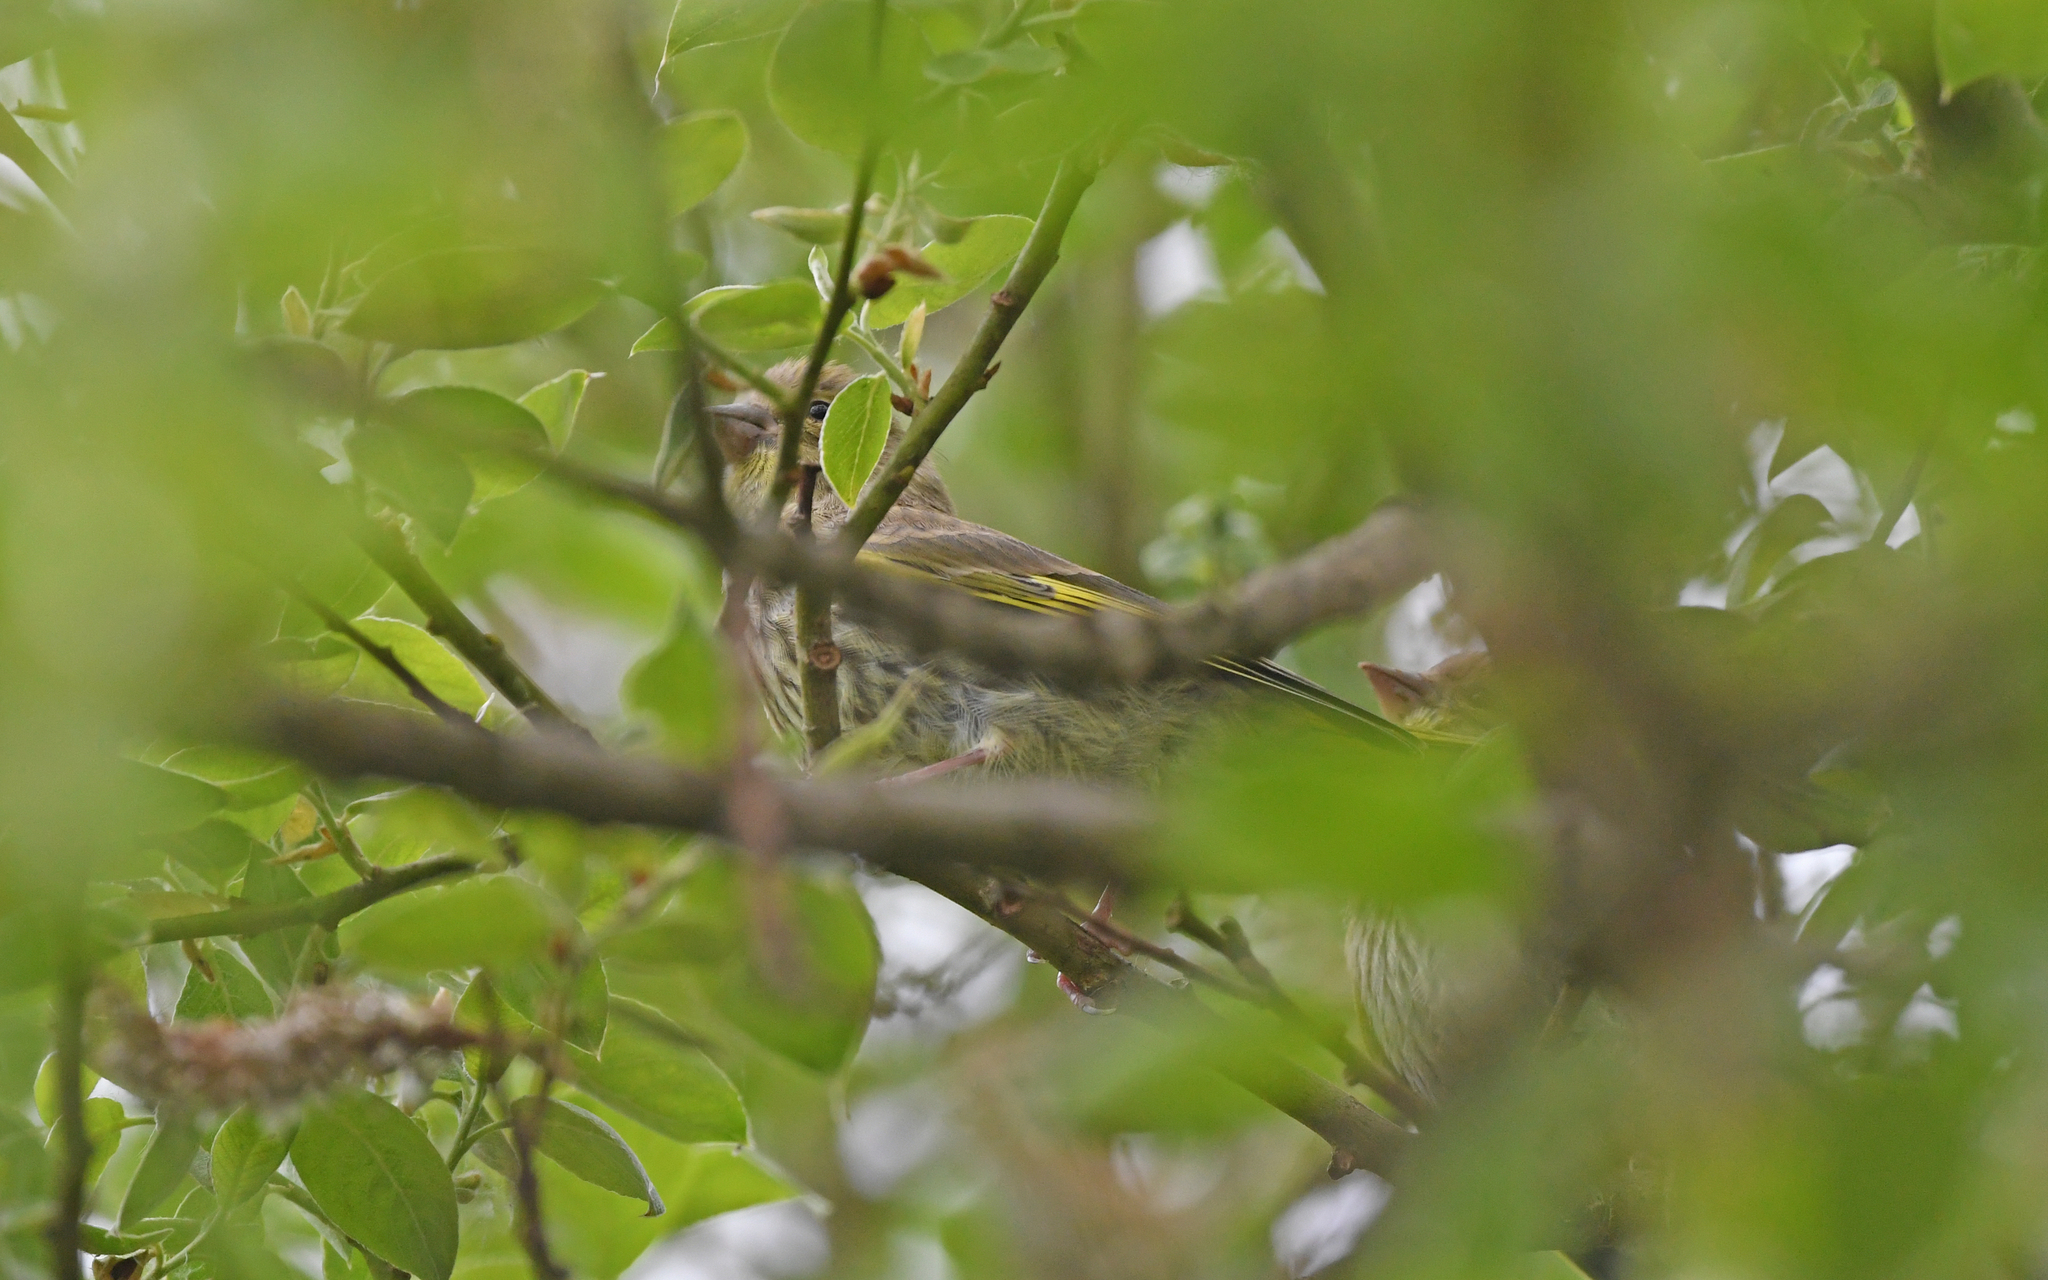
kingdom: Plantae
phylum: Tracheophyta
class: Liliopsida
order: Poales
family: Poaceae
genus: Chloris
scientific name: Chloris chloris
